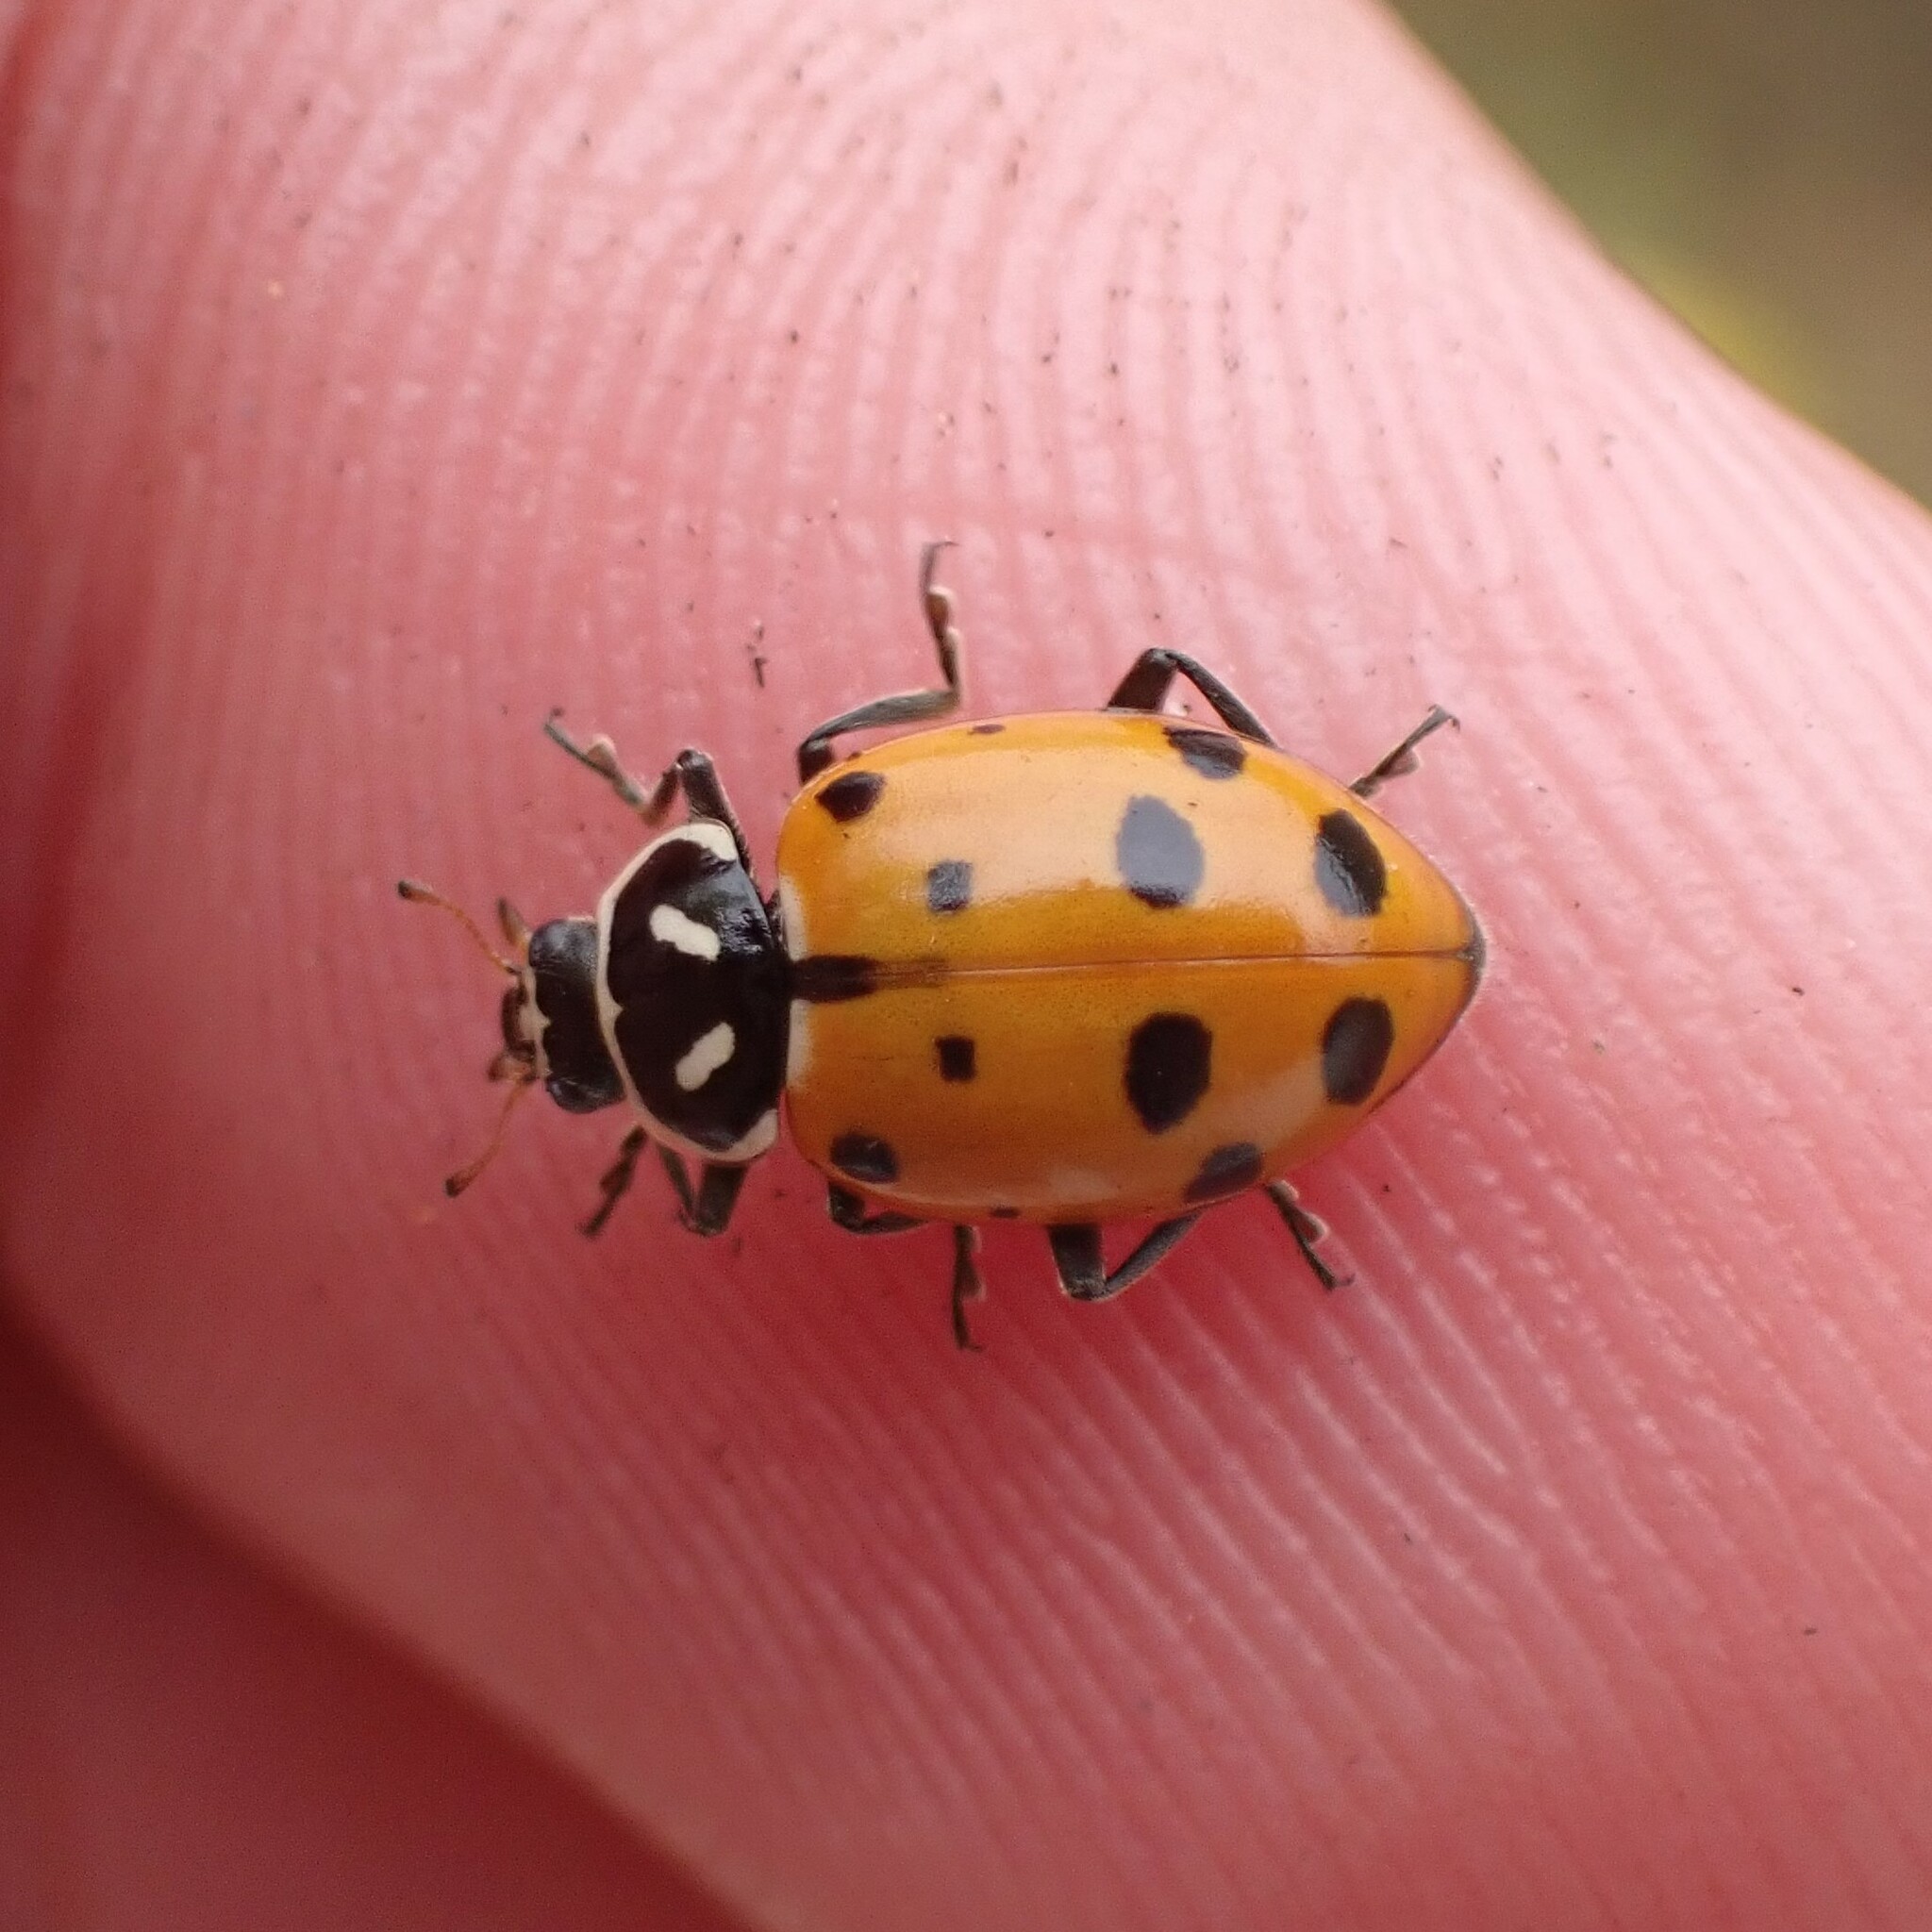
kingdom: Animalia
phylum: Arthropoda
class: Insecta
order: Coleoptera
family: Coccinellidae
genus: Hippodamia
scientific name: Hippodamia convergens
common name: Convergent lady beetle
